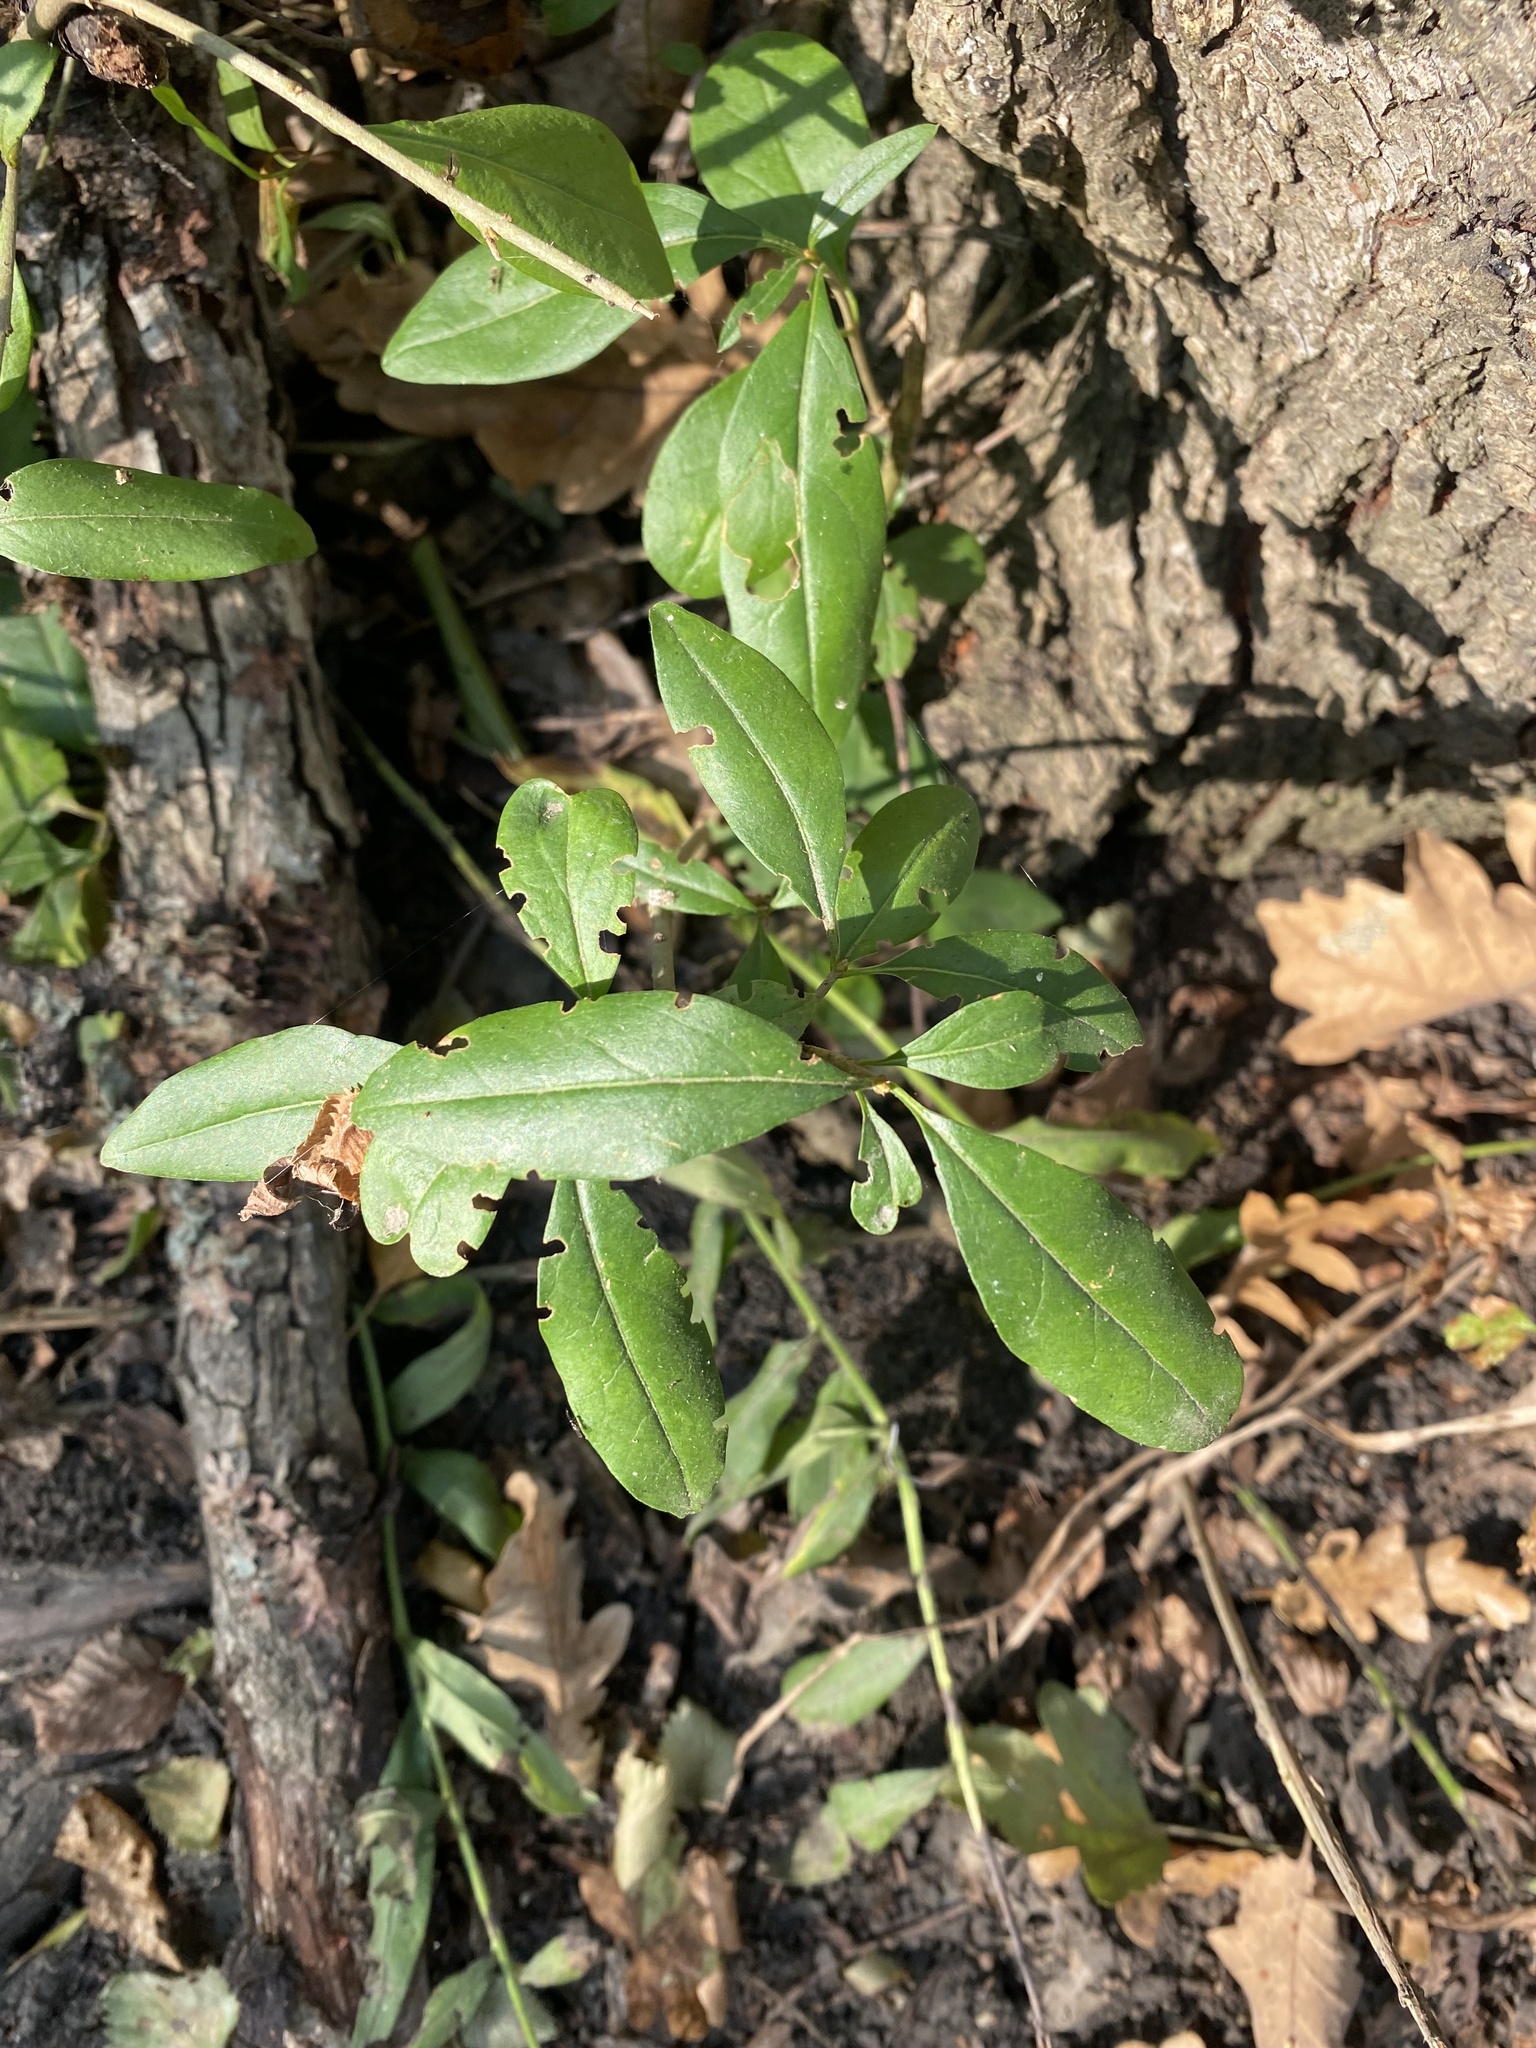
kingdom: Plantae
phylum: Tracheophyta
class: Magnoliopsida
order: Lamiales
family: Oleaceae
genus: Ligustrum
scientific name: Ligustrum vulgare
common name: Wild privet
